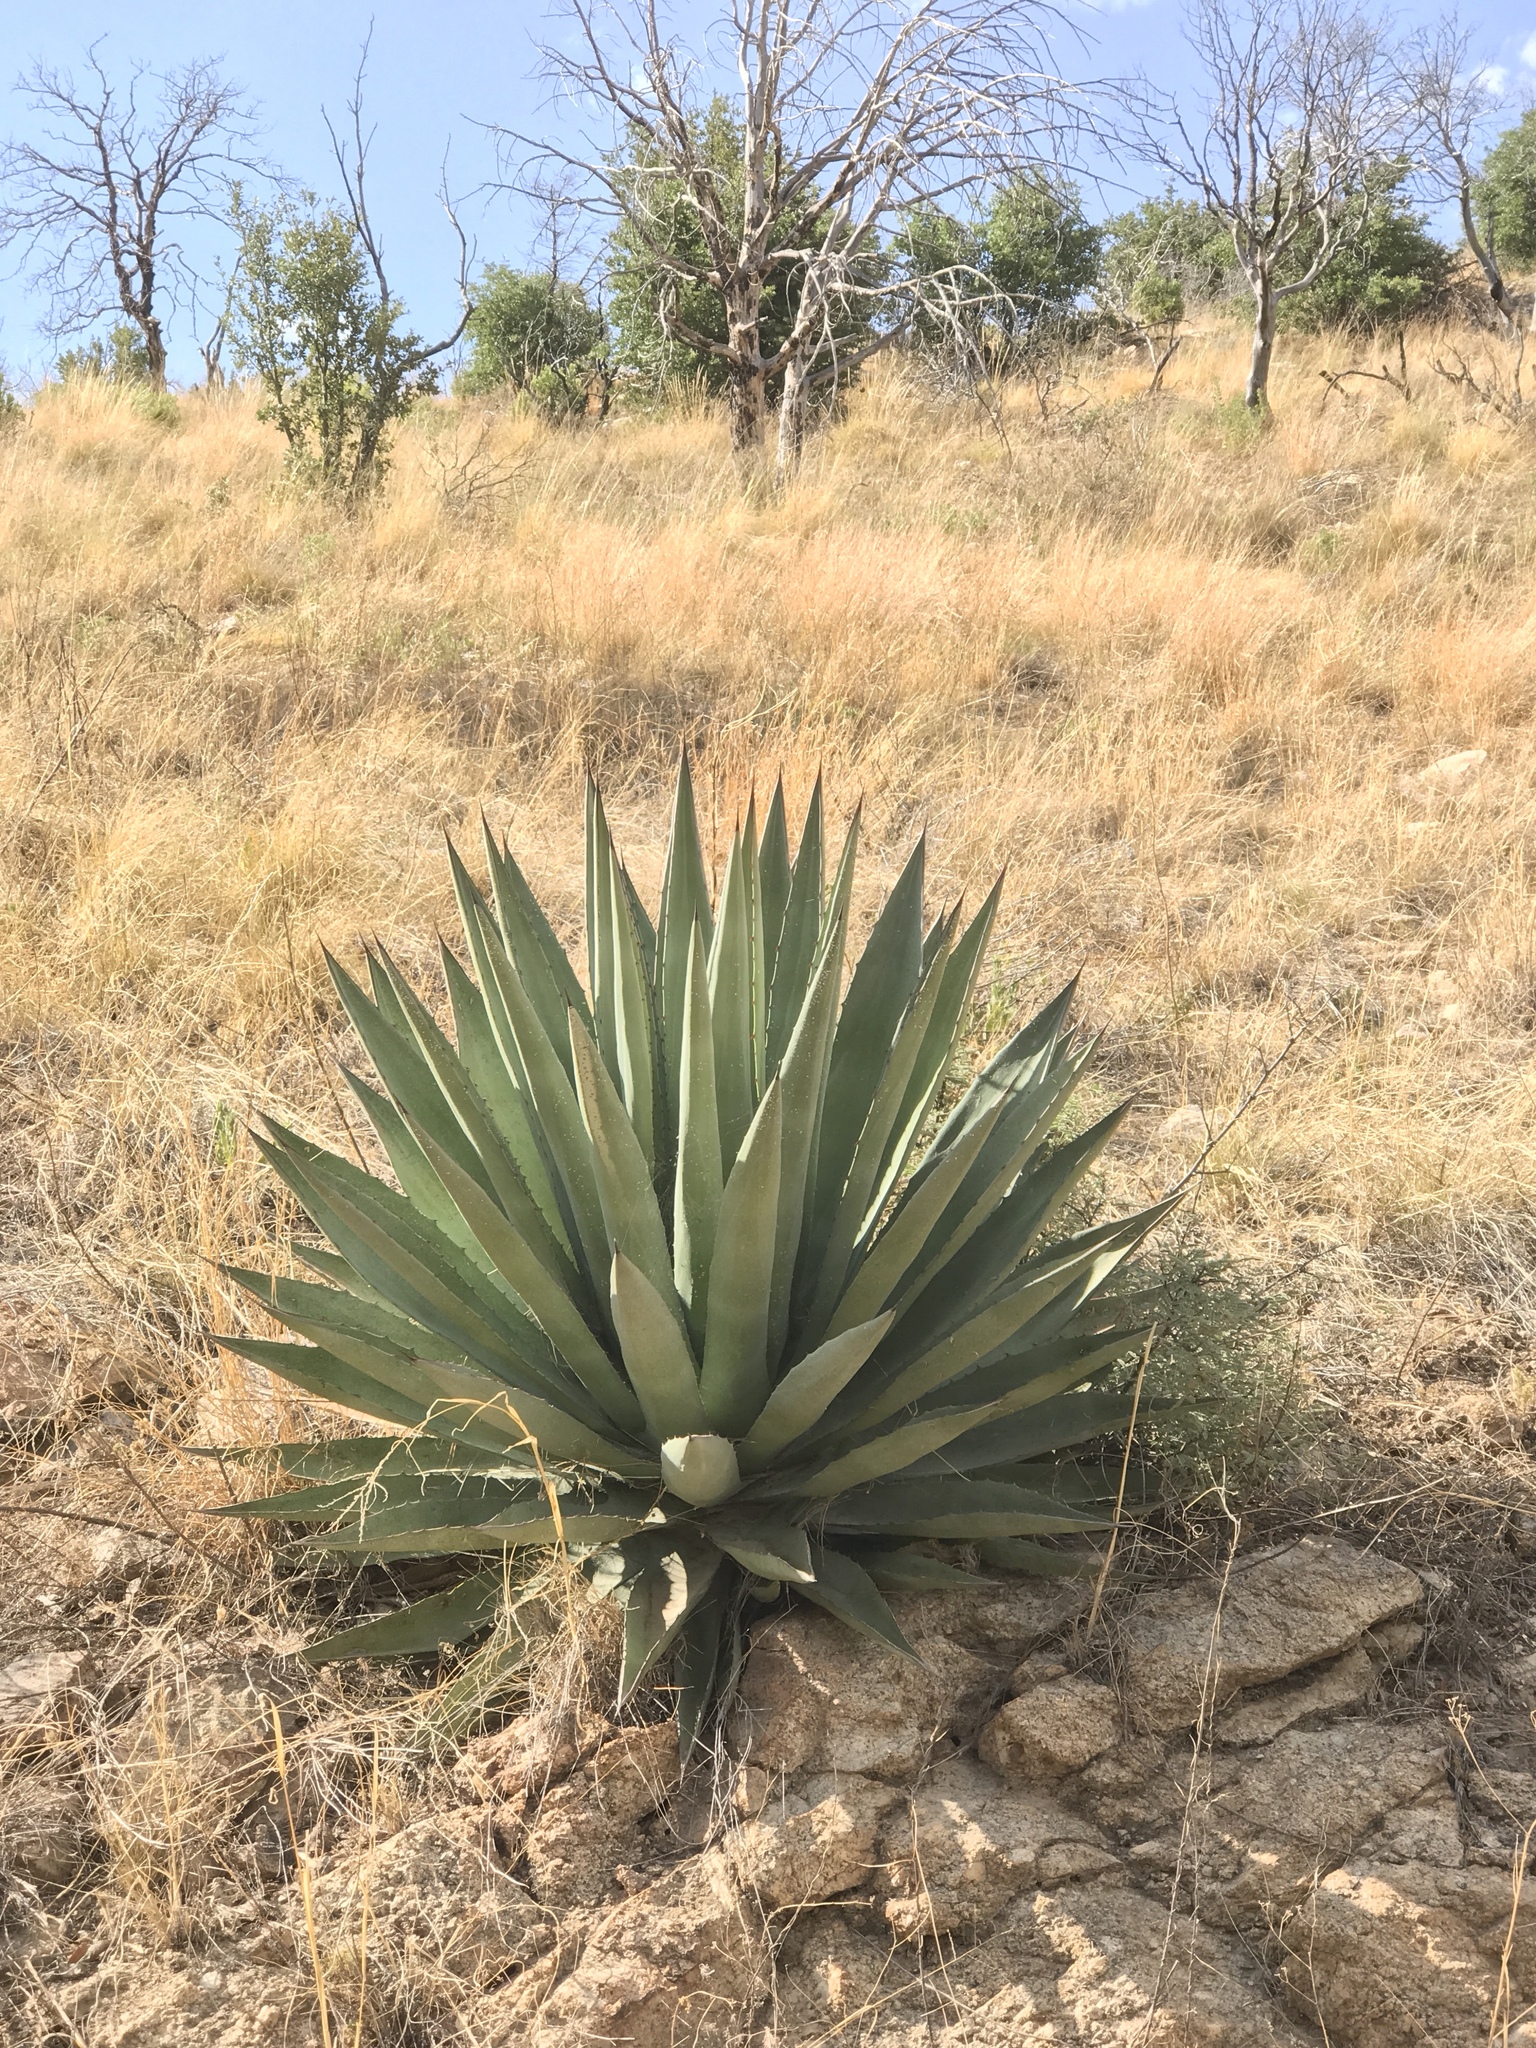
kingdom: Plantae
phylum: Tracheophyta
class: Liliopsida
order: Asparagales
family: Asparagaceae
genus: Agave
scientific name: Agave palmeri
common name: Palmer agave
